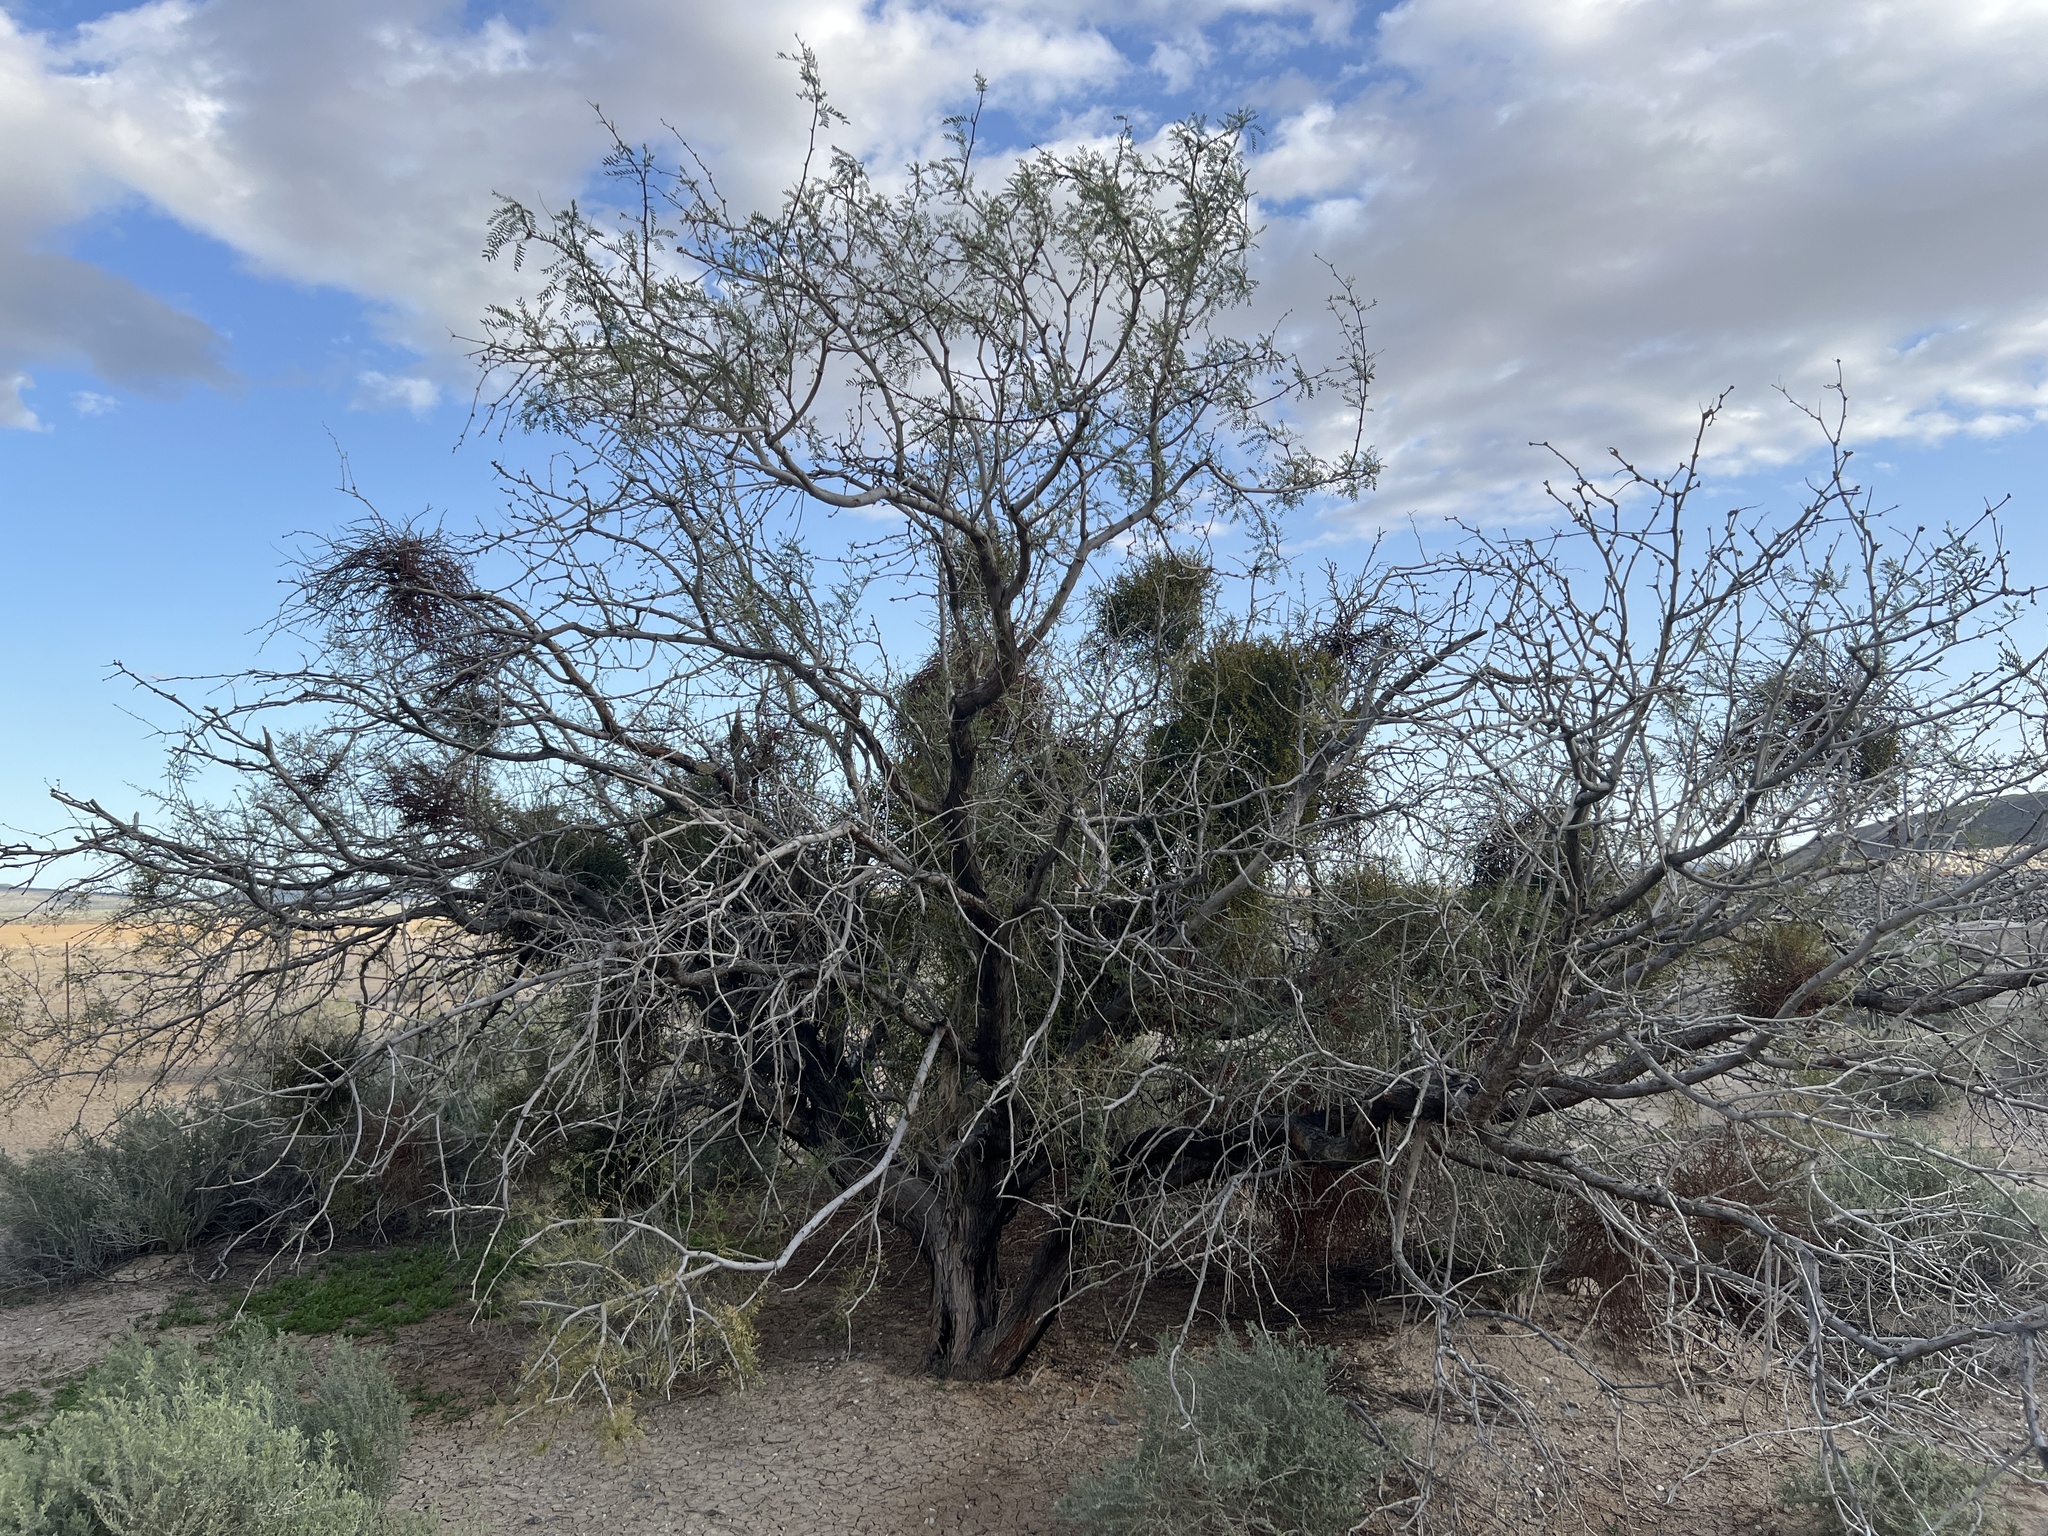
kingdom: Plantae
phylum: Tracheophyta
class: Magnoliopsida
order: Fabales
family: Fabaceae
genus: Prosopis
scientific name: Prosopis pubescens
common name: Screw-bean
